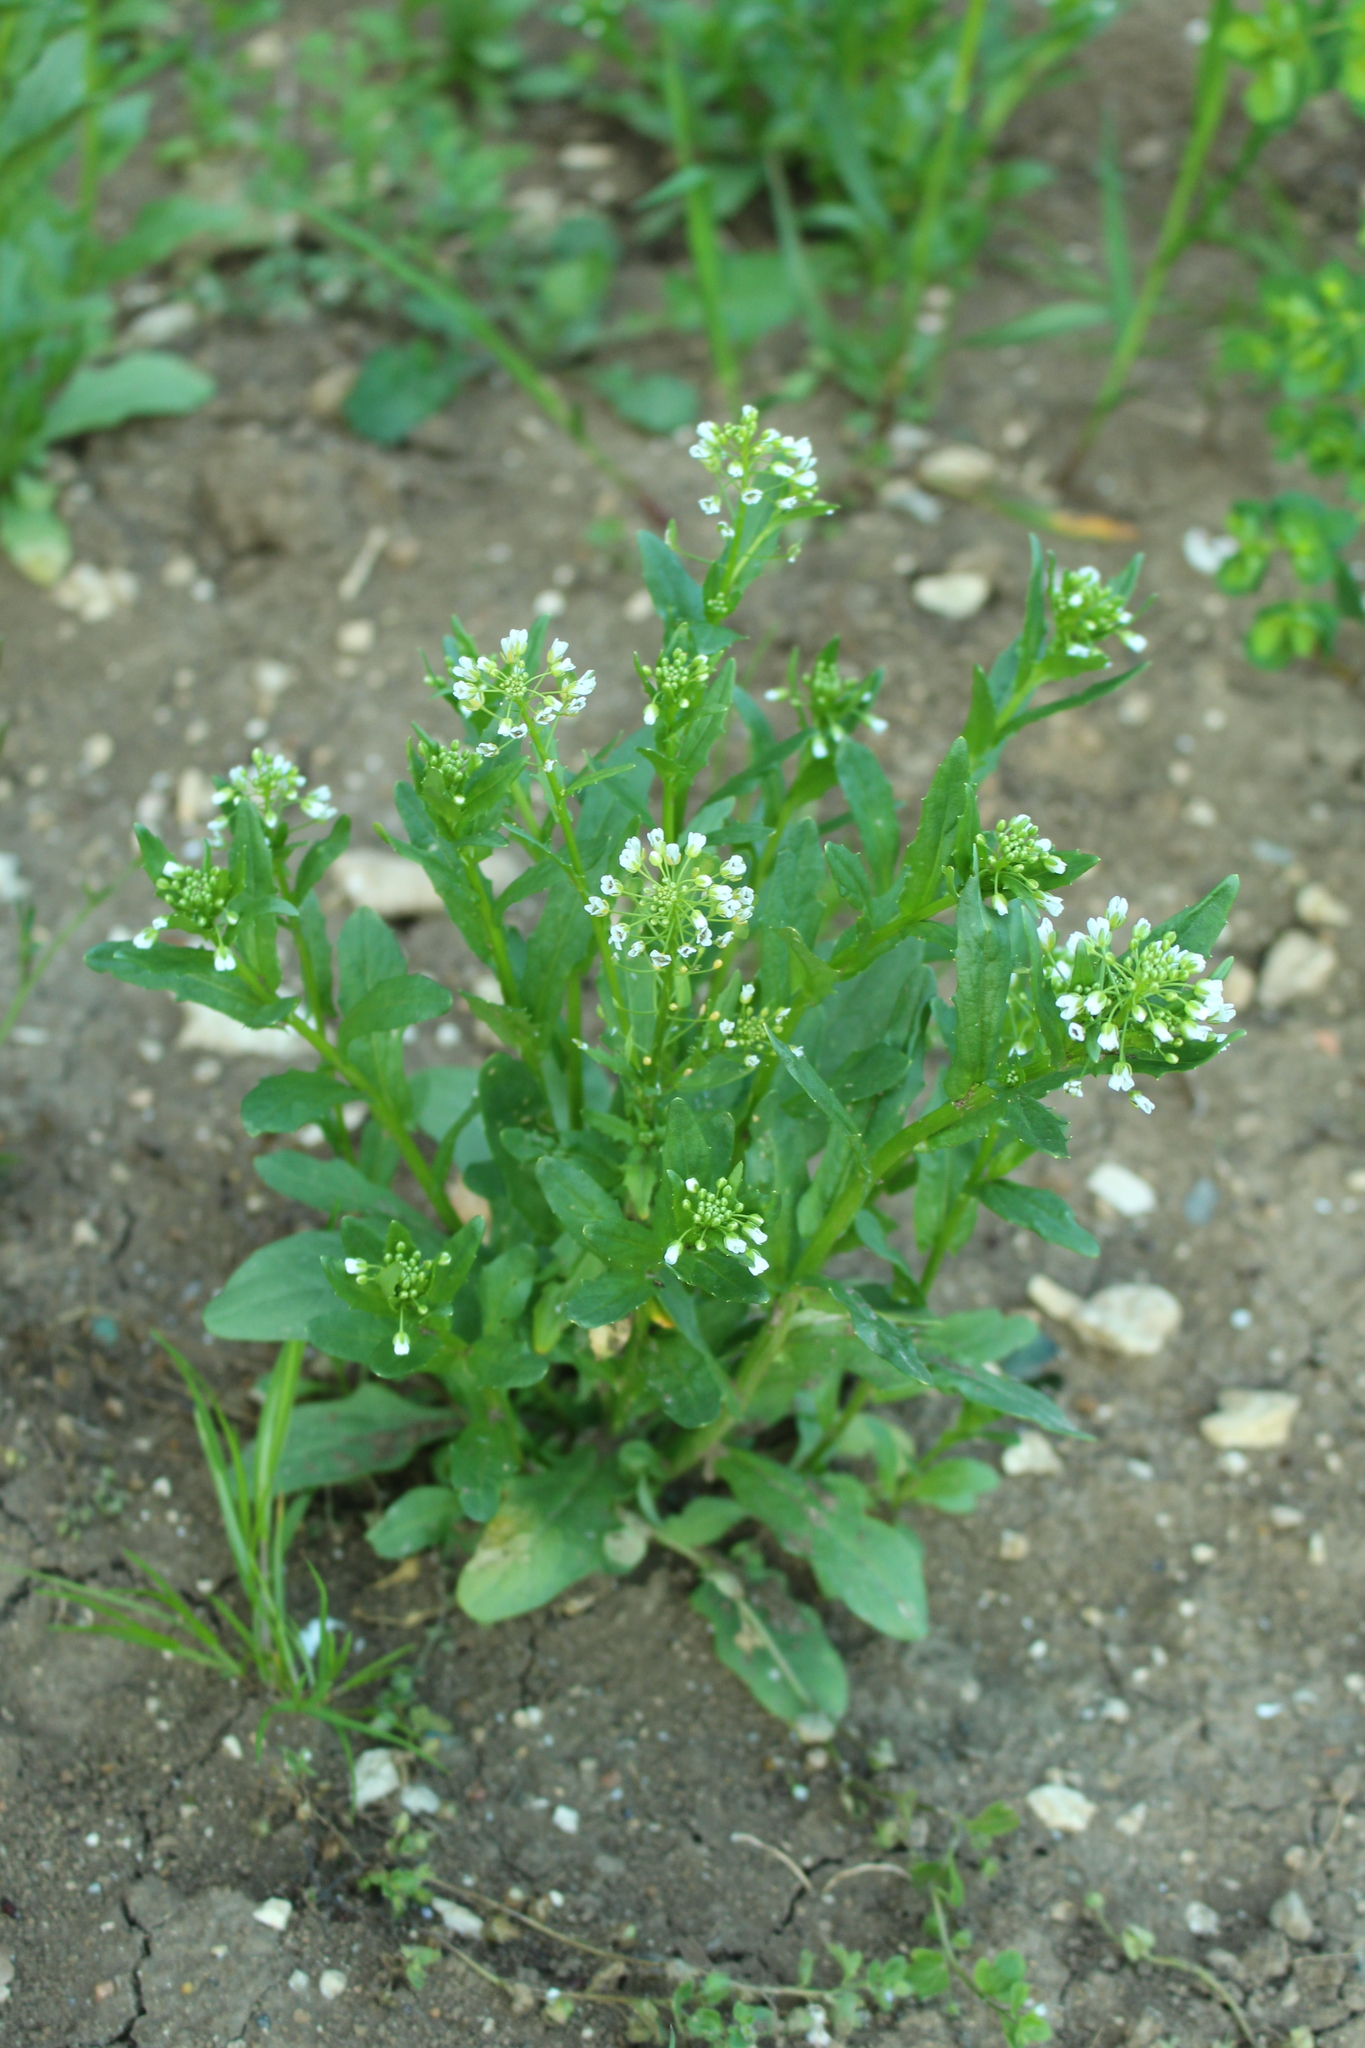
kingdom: Plantae
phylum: Tracheophyta
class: Magnoliopsida
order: Brassicales
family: Brassicaceae
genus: Thlaspi
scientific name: Thlaspi arvense
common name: Field pennycress
